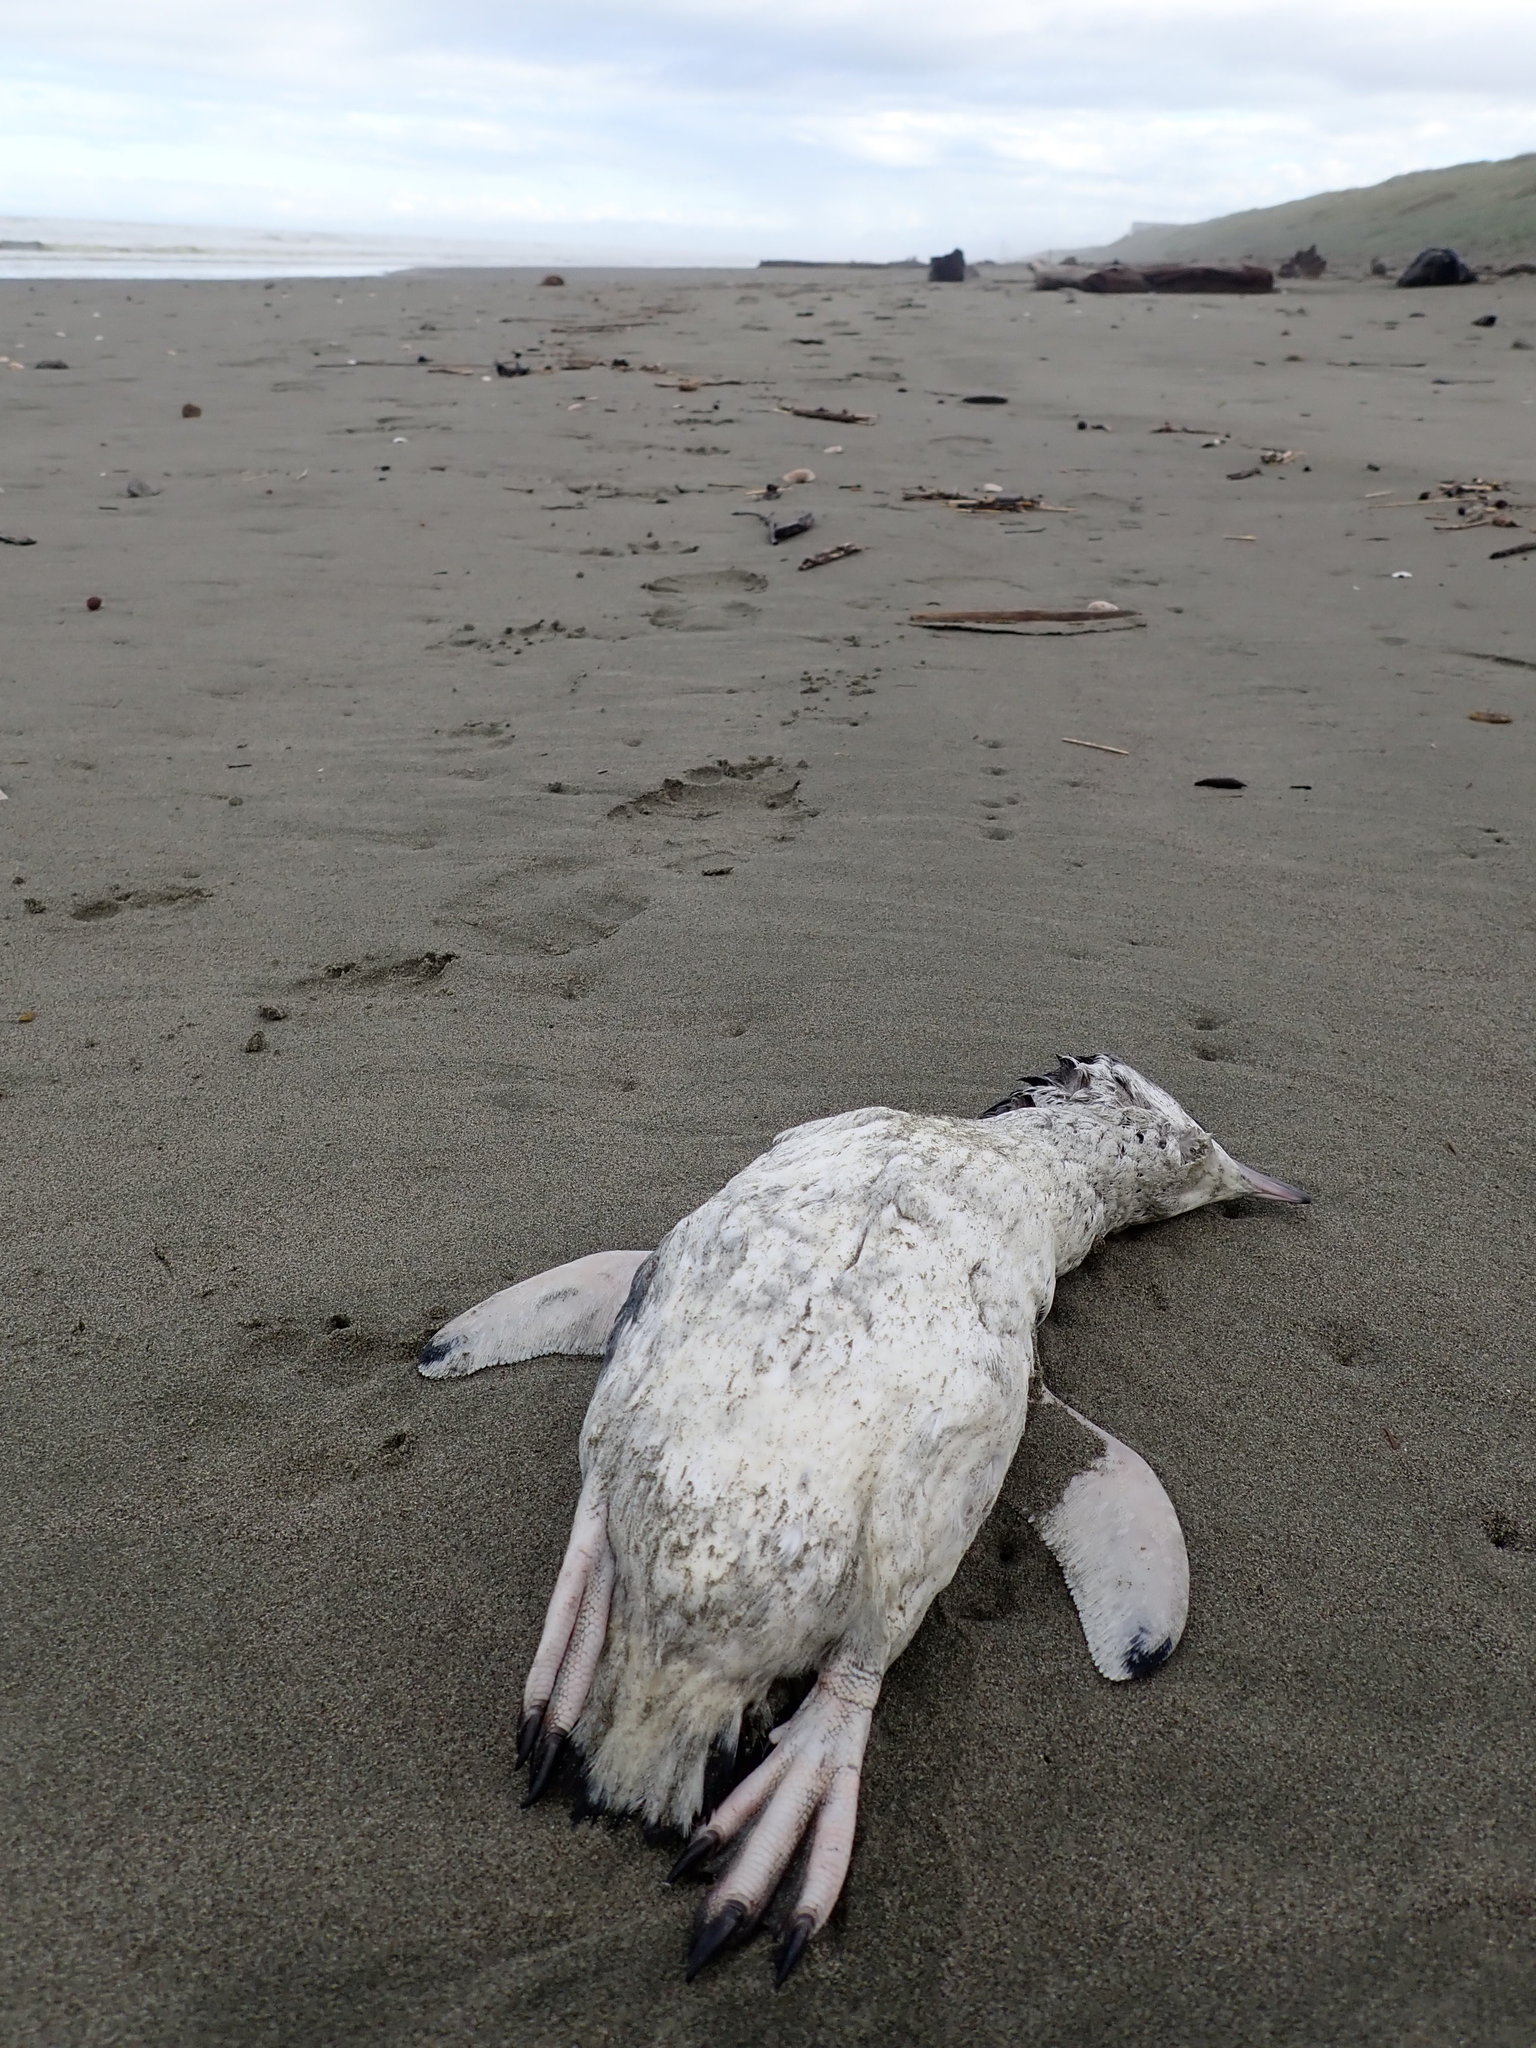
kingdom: Animalia
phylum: Chordata
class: Aves
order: Sphenisciformes
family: Spheniscidae
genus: Eudyptula
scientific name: Eudyptula minor
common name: Little penguin
